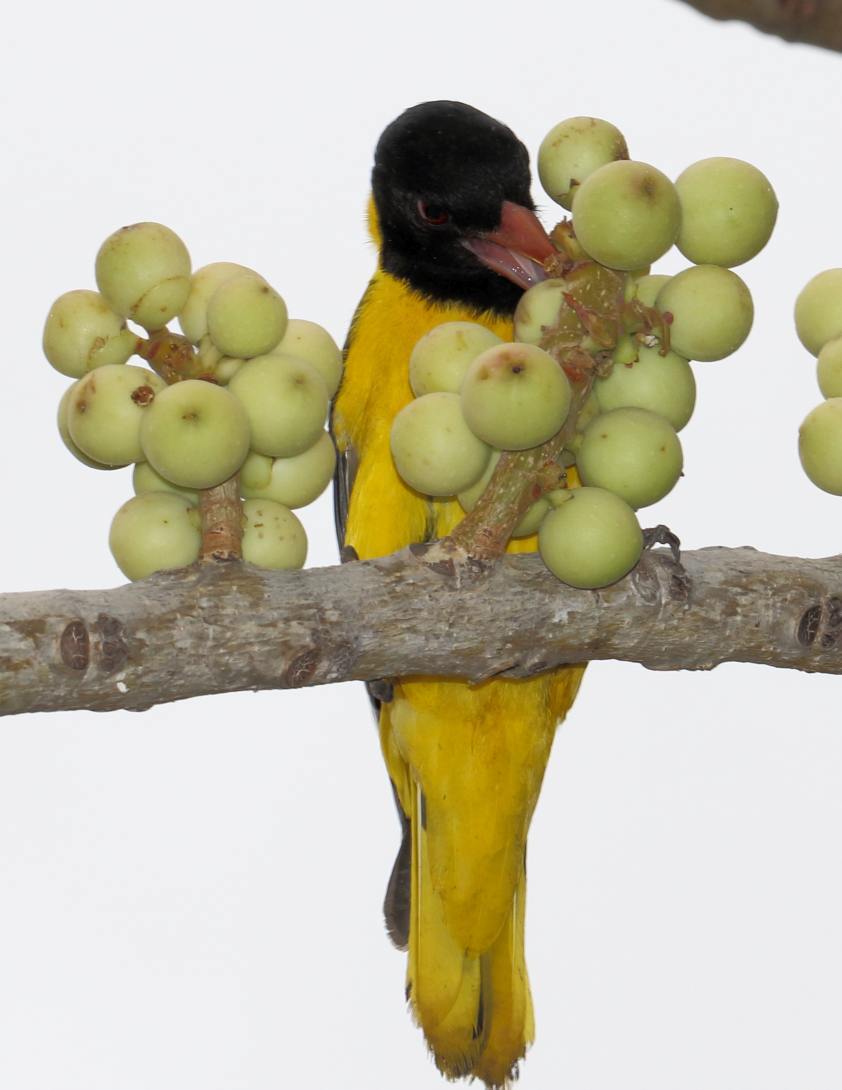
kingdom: Animalia
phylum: Chordata
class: Aves
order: Passeriformes
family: Oriolidae
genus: Oriolus
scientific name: Oriolus larvatus
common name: Black-headed oriole
